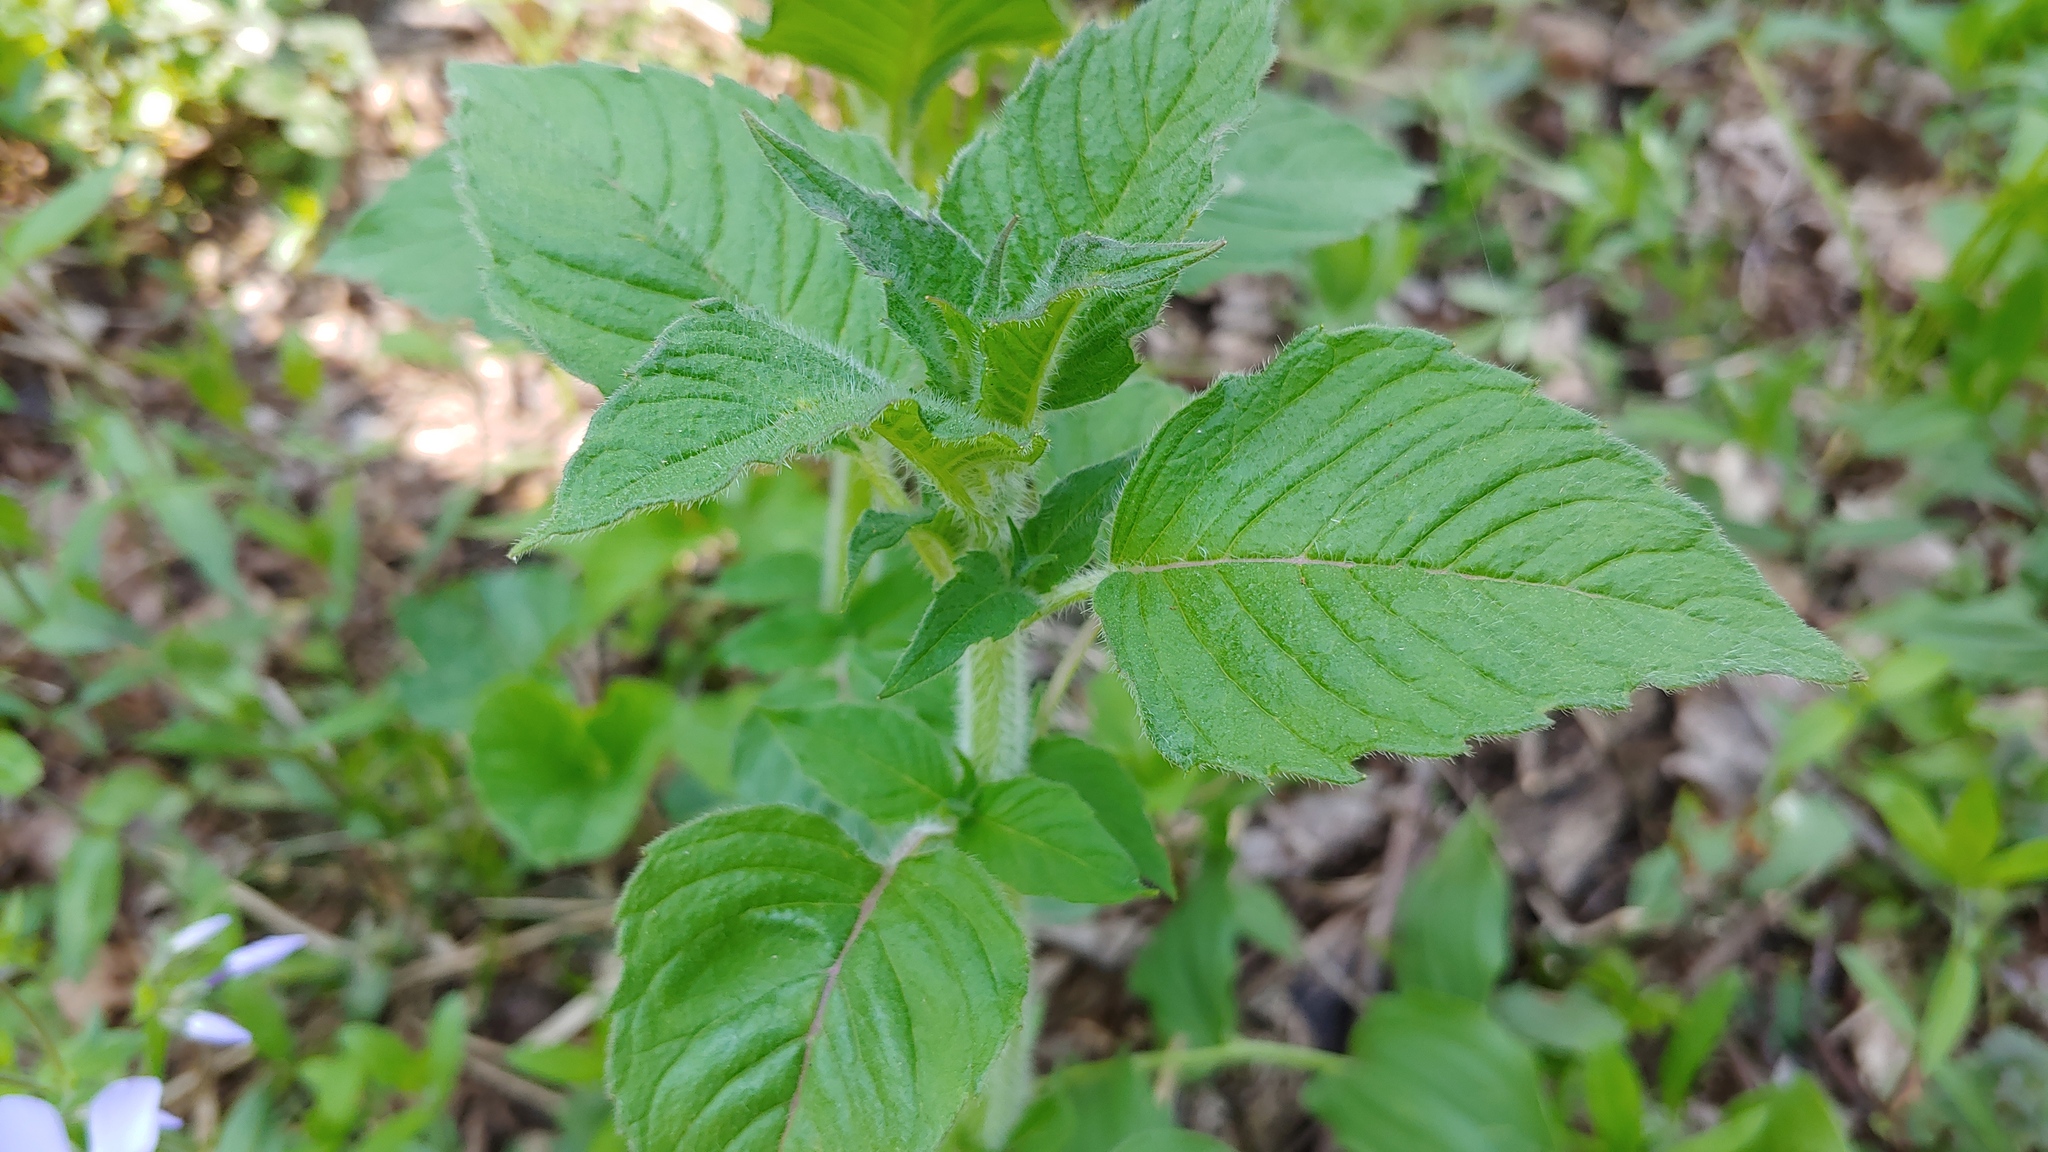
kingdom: Plantae
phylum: Tracheophyta
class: Magnoliopsida
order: Lamiales
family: Lamiaceae
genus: Blephilia
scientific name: Blephilia hirsuta
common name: Hairy blephilia
